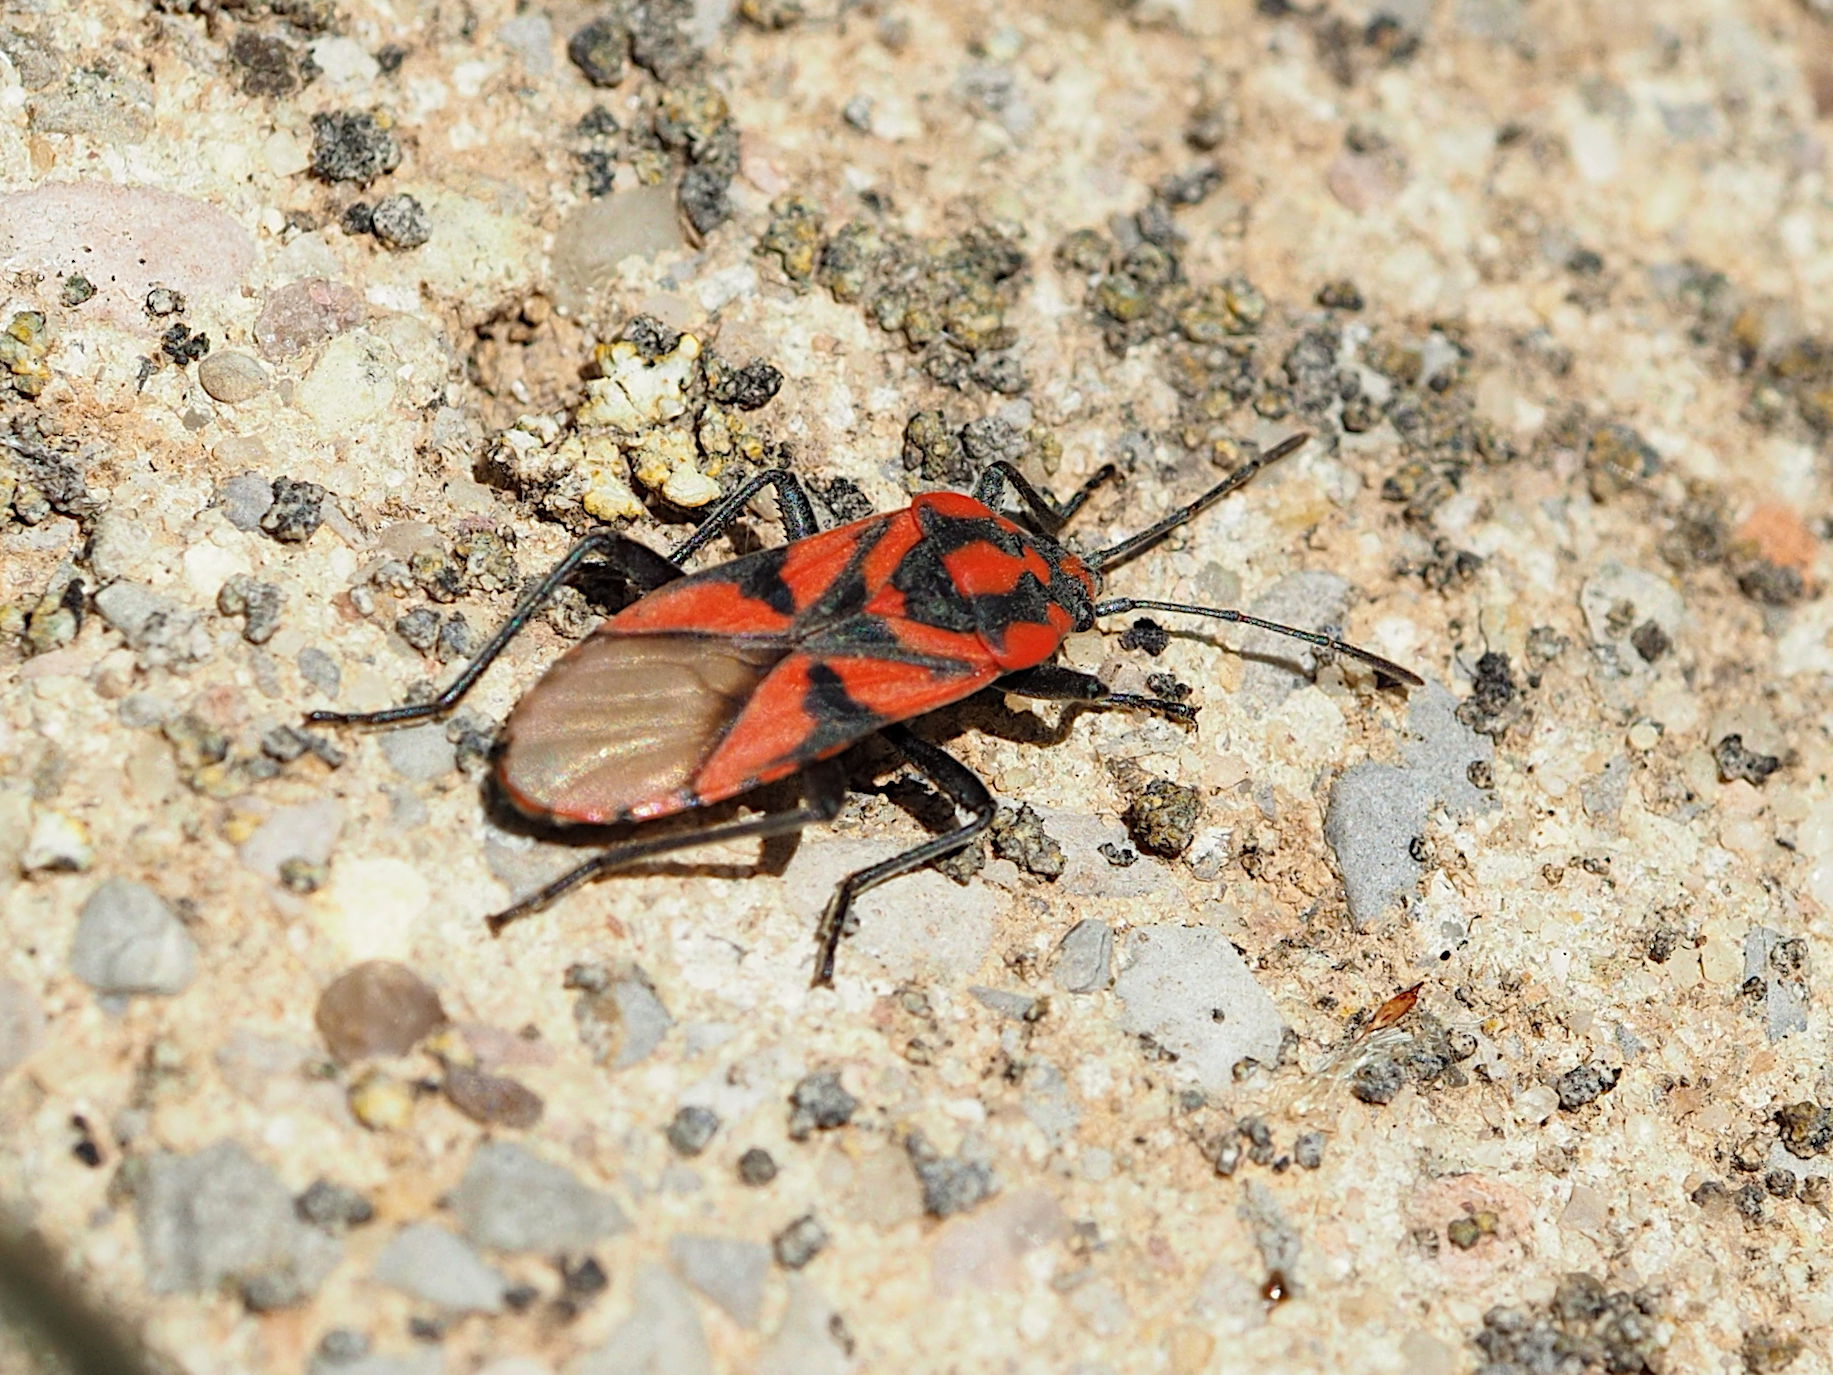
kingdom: Animalia
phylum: Arthropoda
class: Insecta
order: Hemiptera
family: Lygaeidae
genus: Spilostethus
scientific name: Spilostethus furcula
